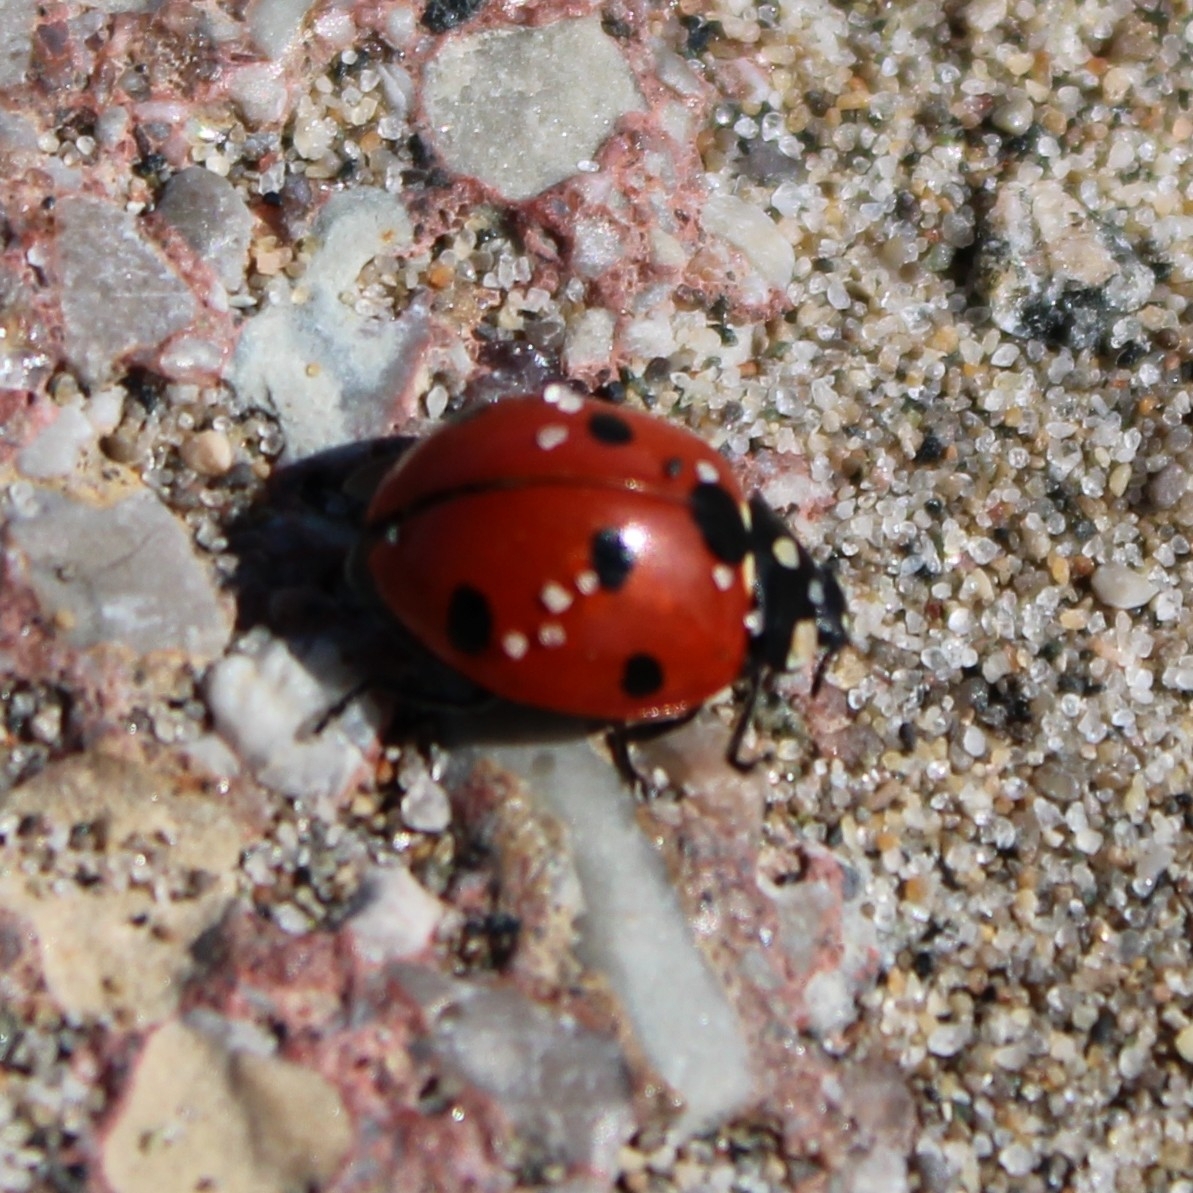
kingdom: Animalia
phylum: Arthropoda
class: Insecta
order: Coleoptera
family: Coccinellidae
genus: Coccinella
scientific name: Coccinella septempunctata
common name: Sevenspotted lady beetle
